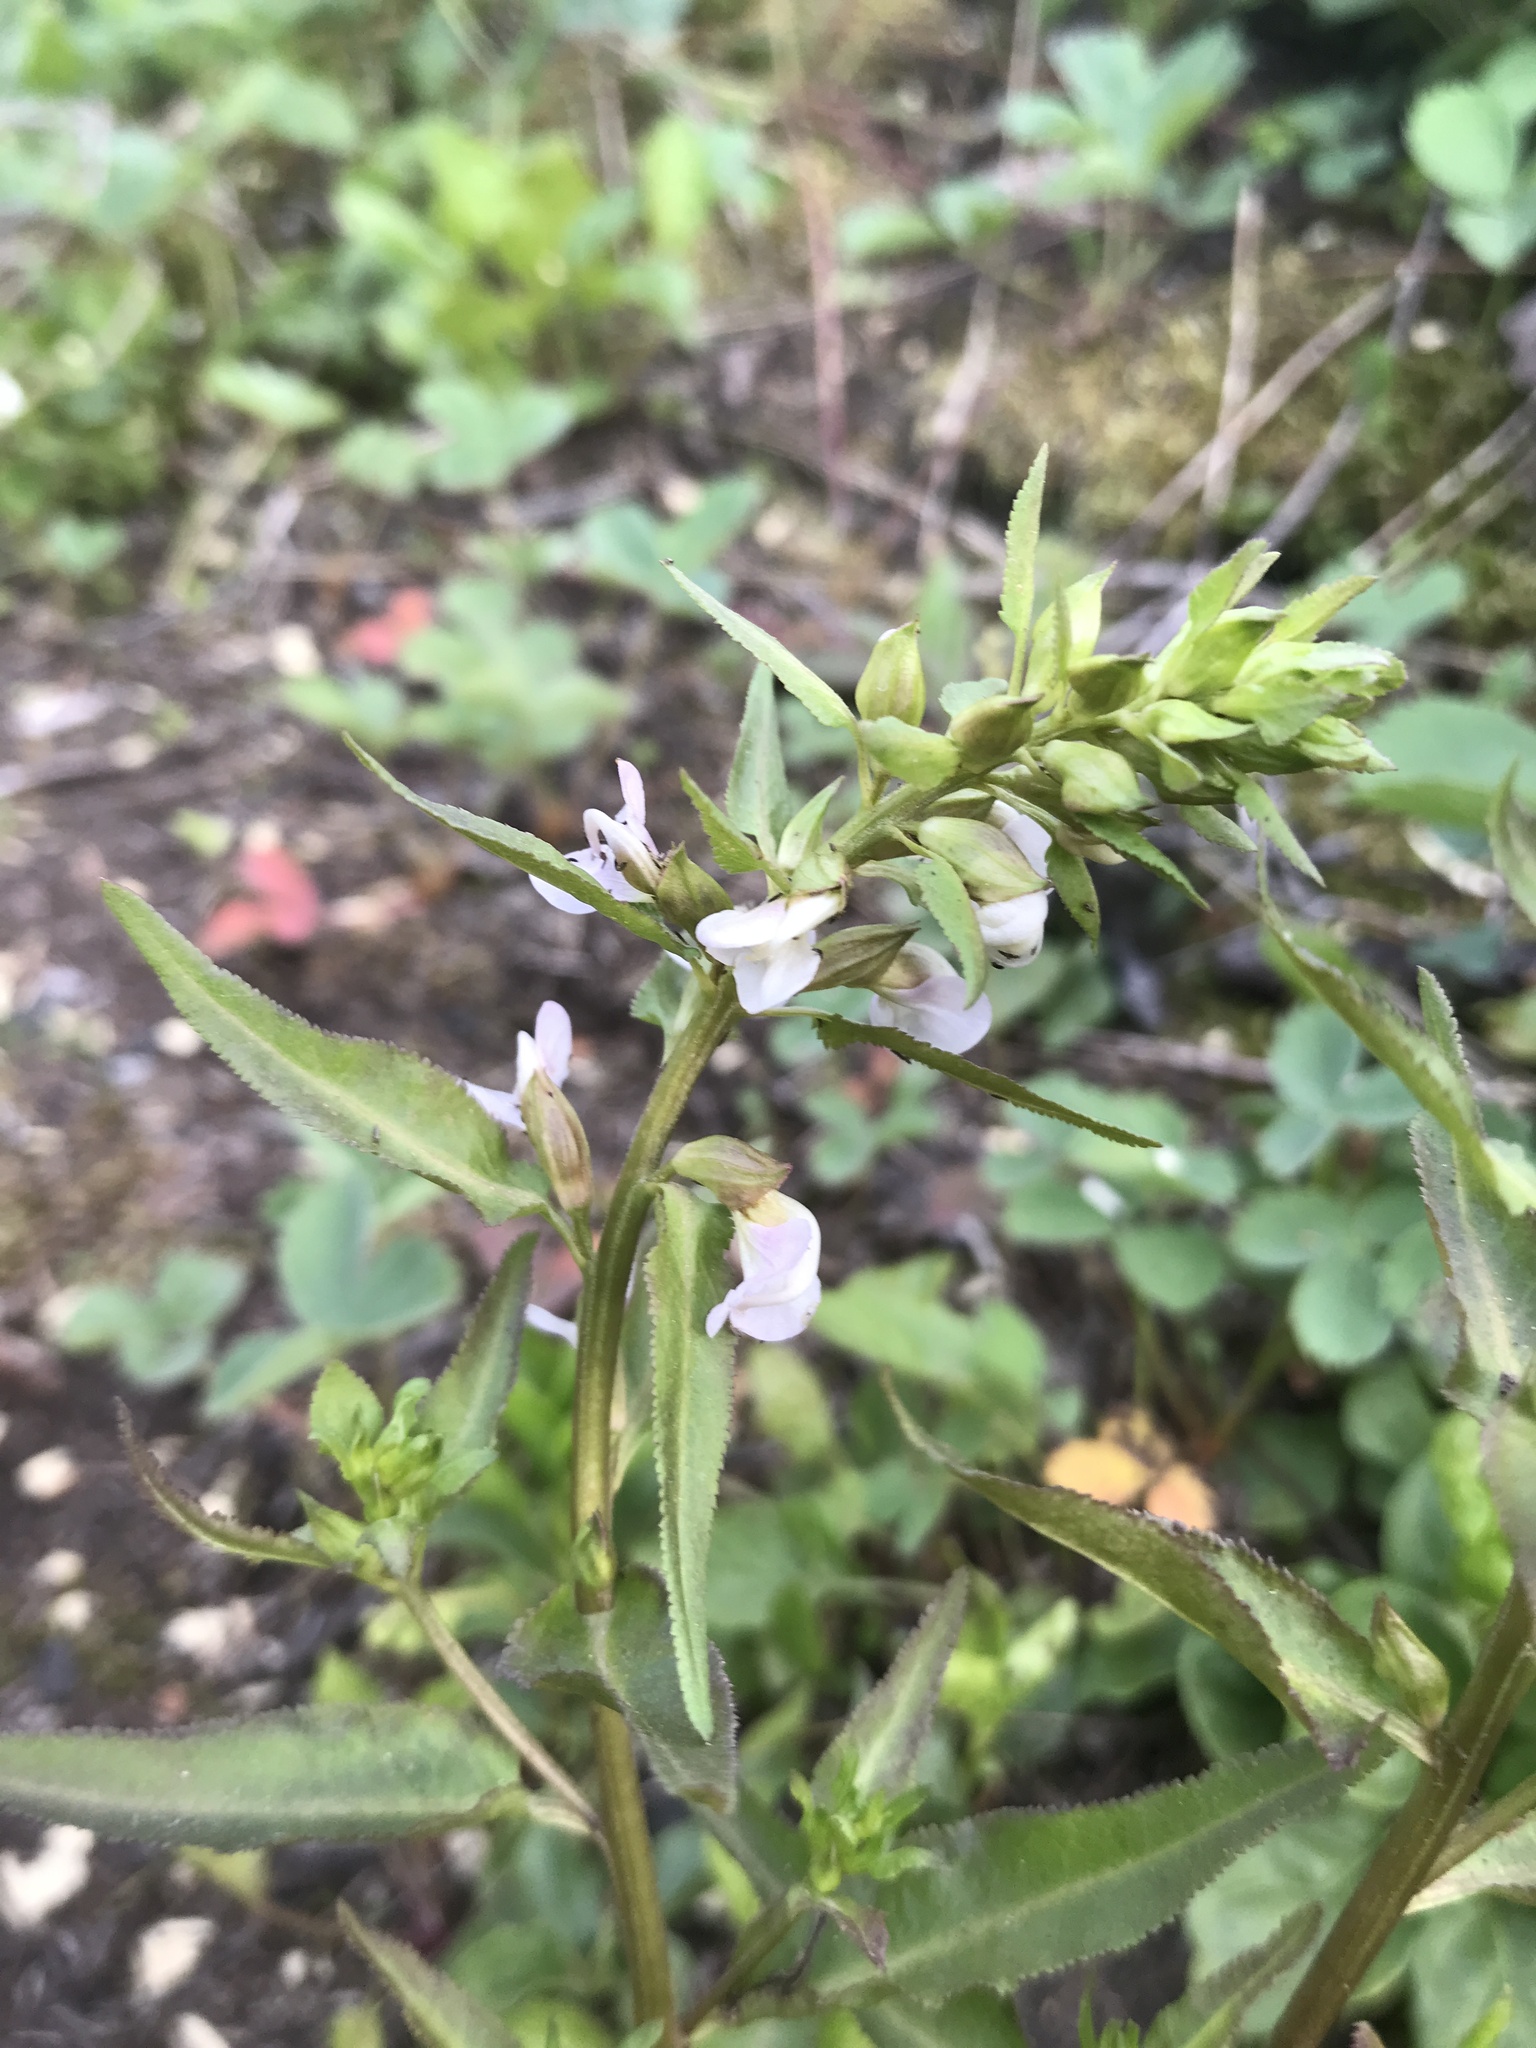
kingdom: Plantae
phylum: Tracheophyta
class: Magnoliopsida
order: Lamiales
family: Orobanchaceae
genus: Pedicularis
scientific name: Pedicularis racemosa
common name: Leafy lousewort
